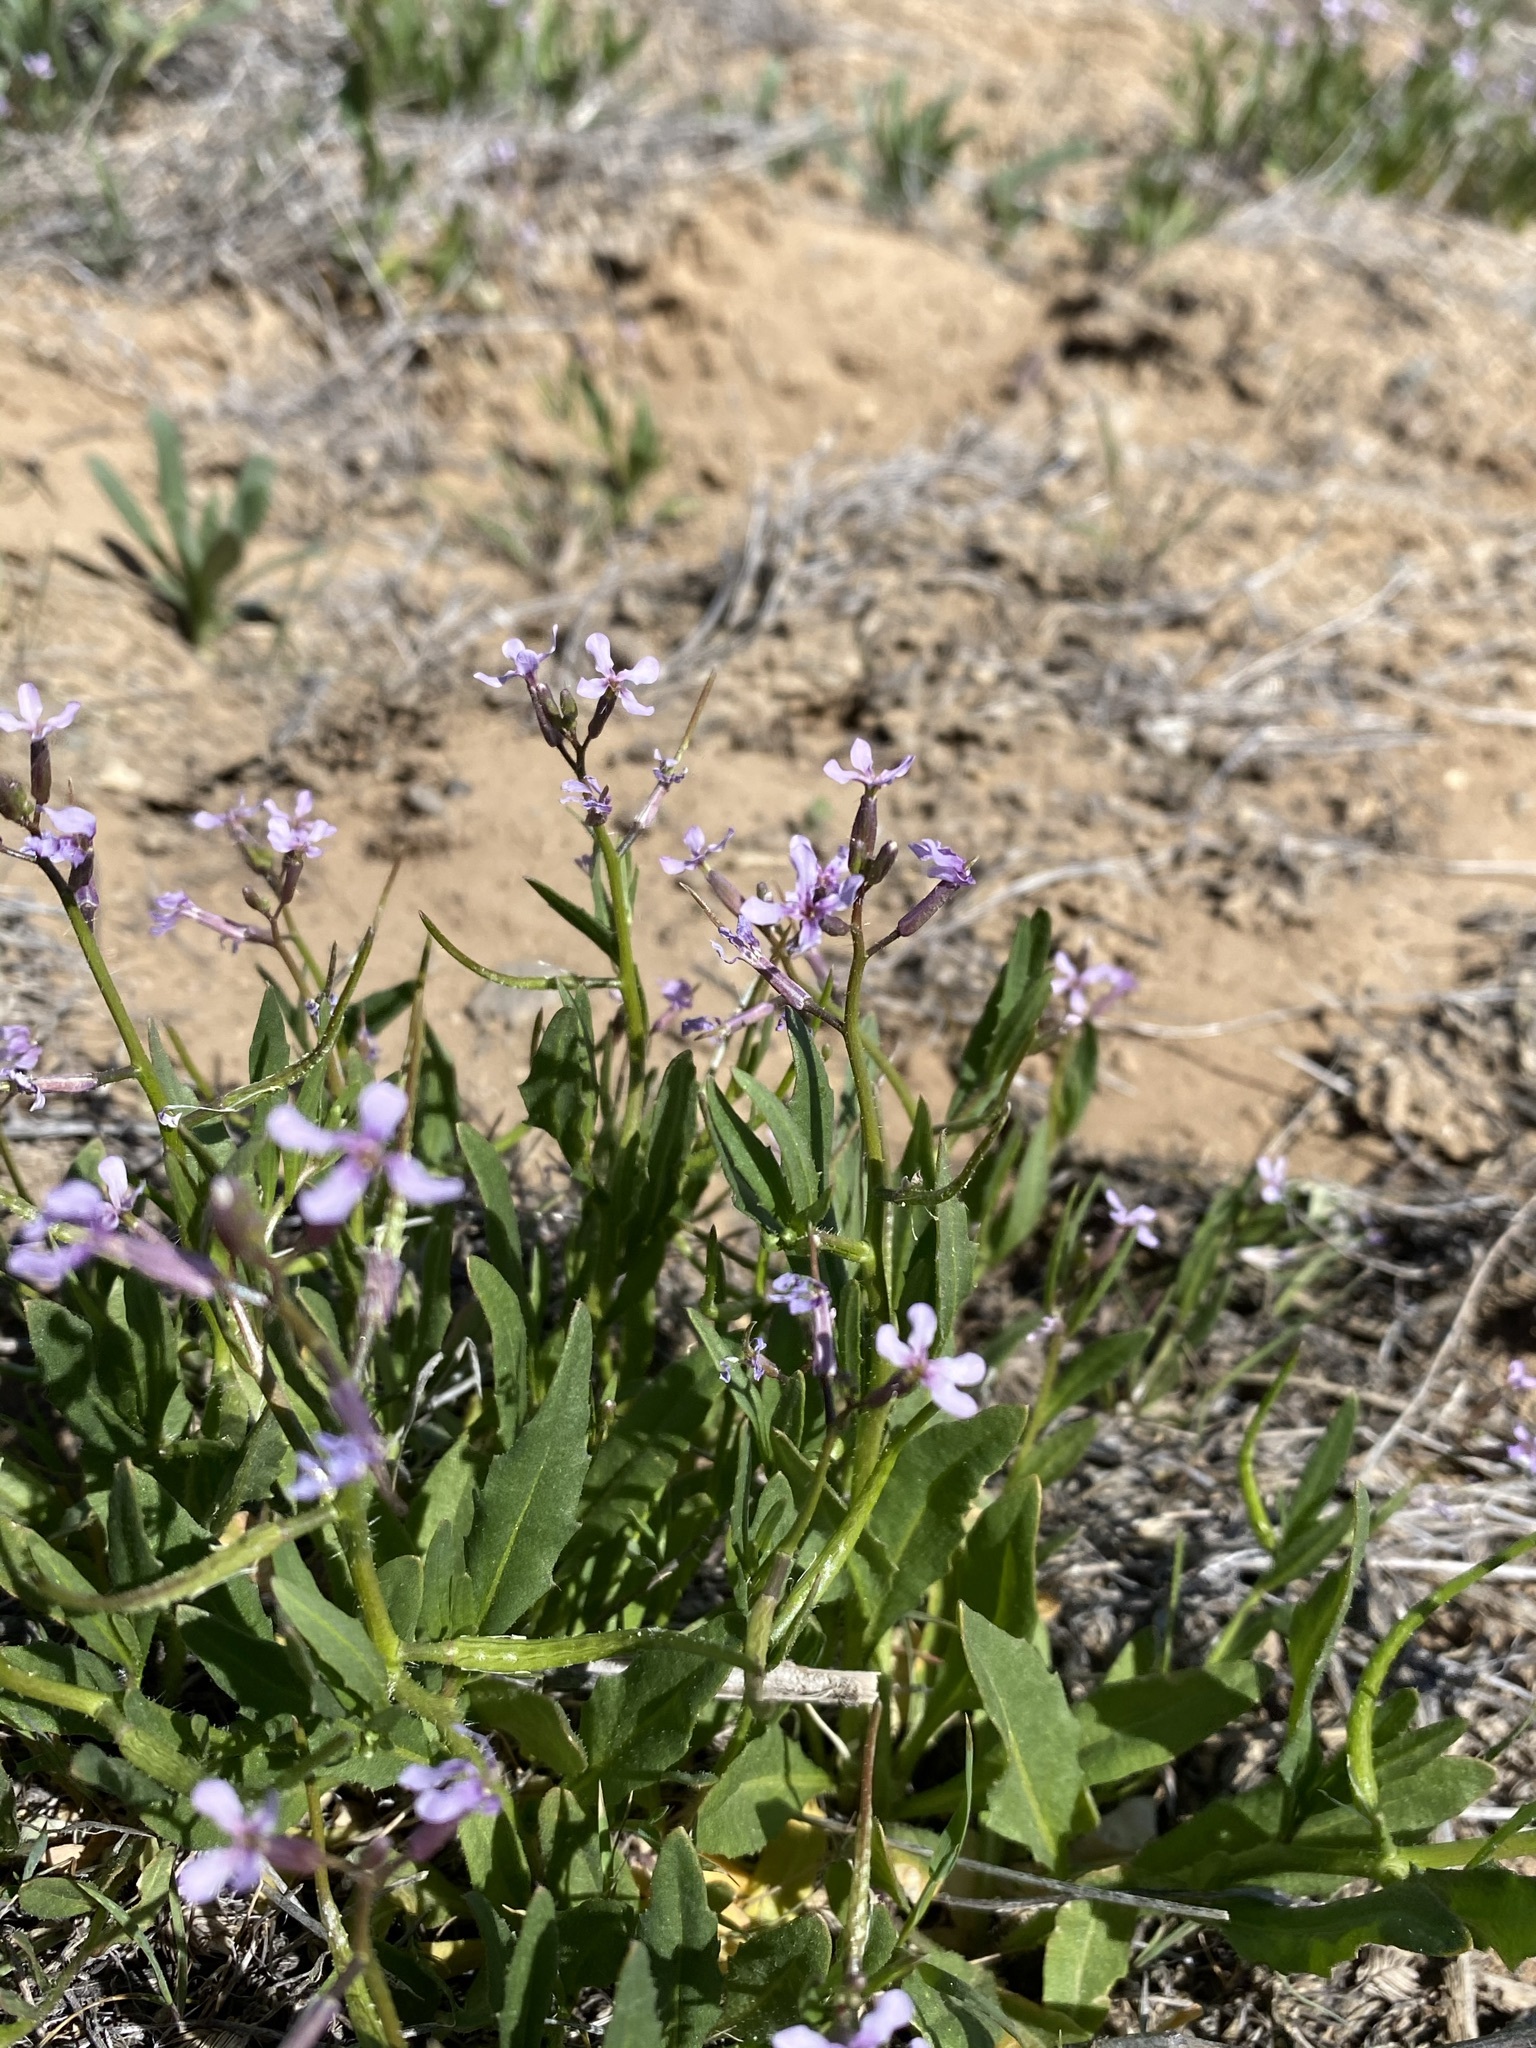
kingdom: Plantae
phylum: Tracheophyta
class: Magnoliopsida
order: Brassicales
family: Brassicaceae
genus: Chorispora
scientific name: Chorispora tenella
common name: Crossflower
